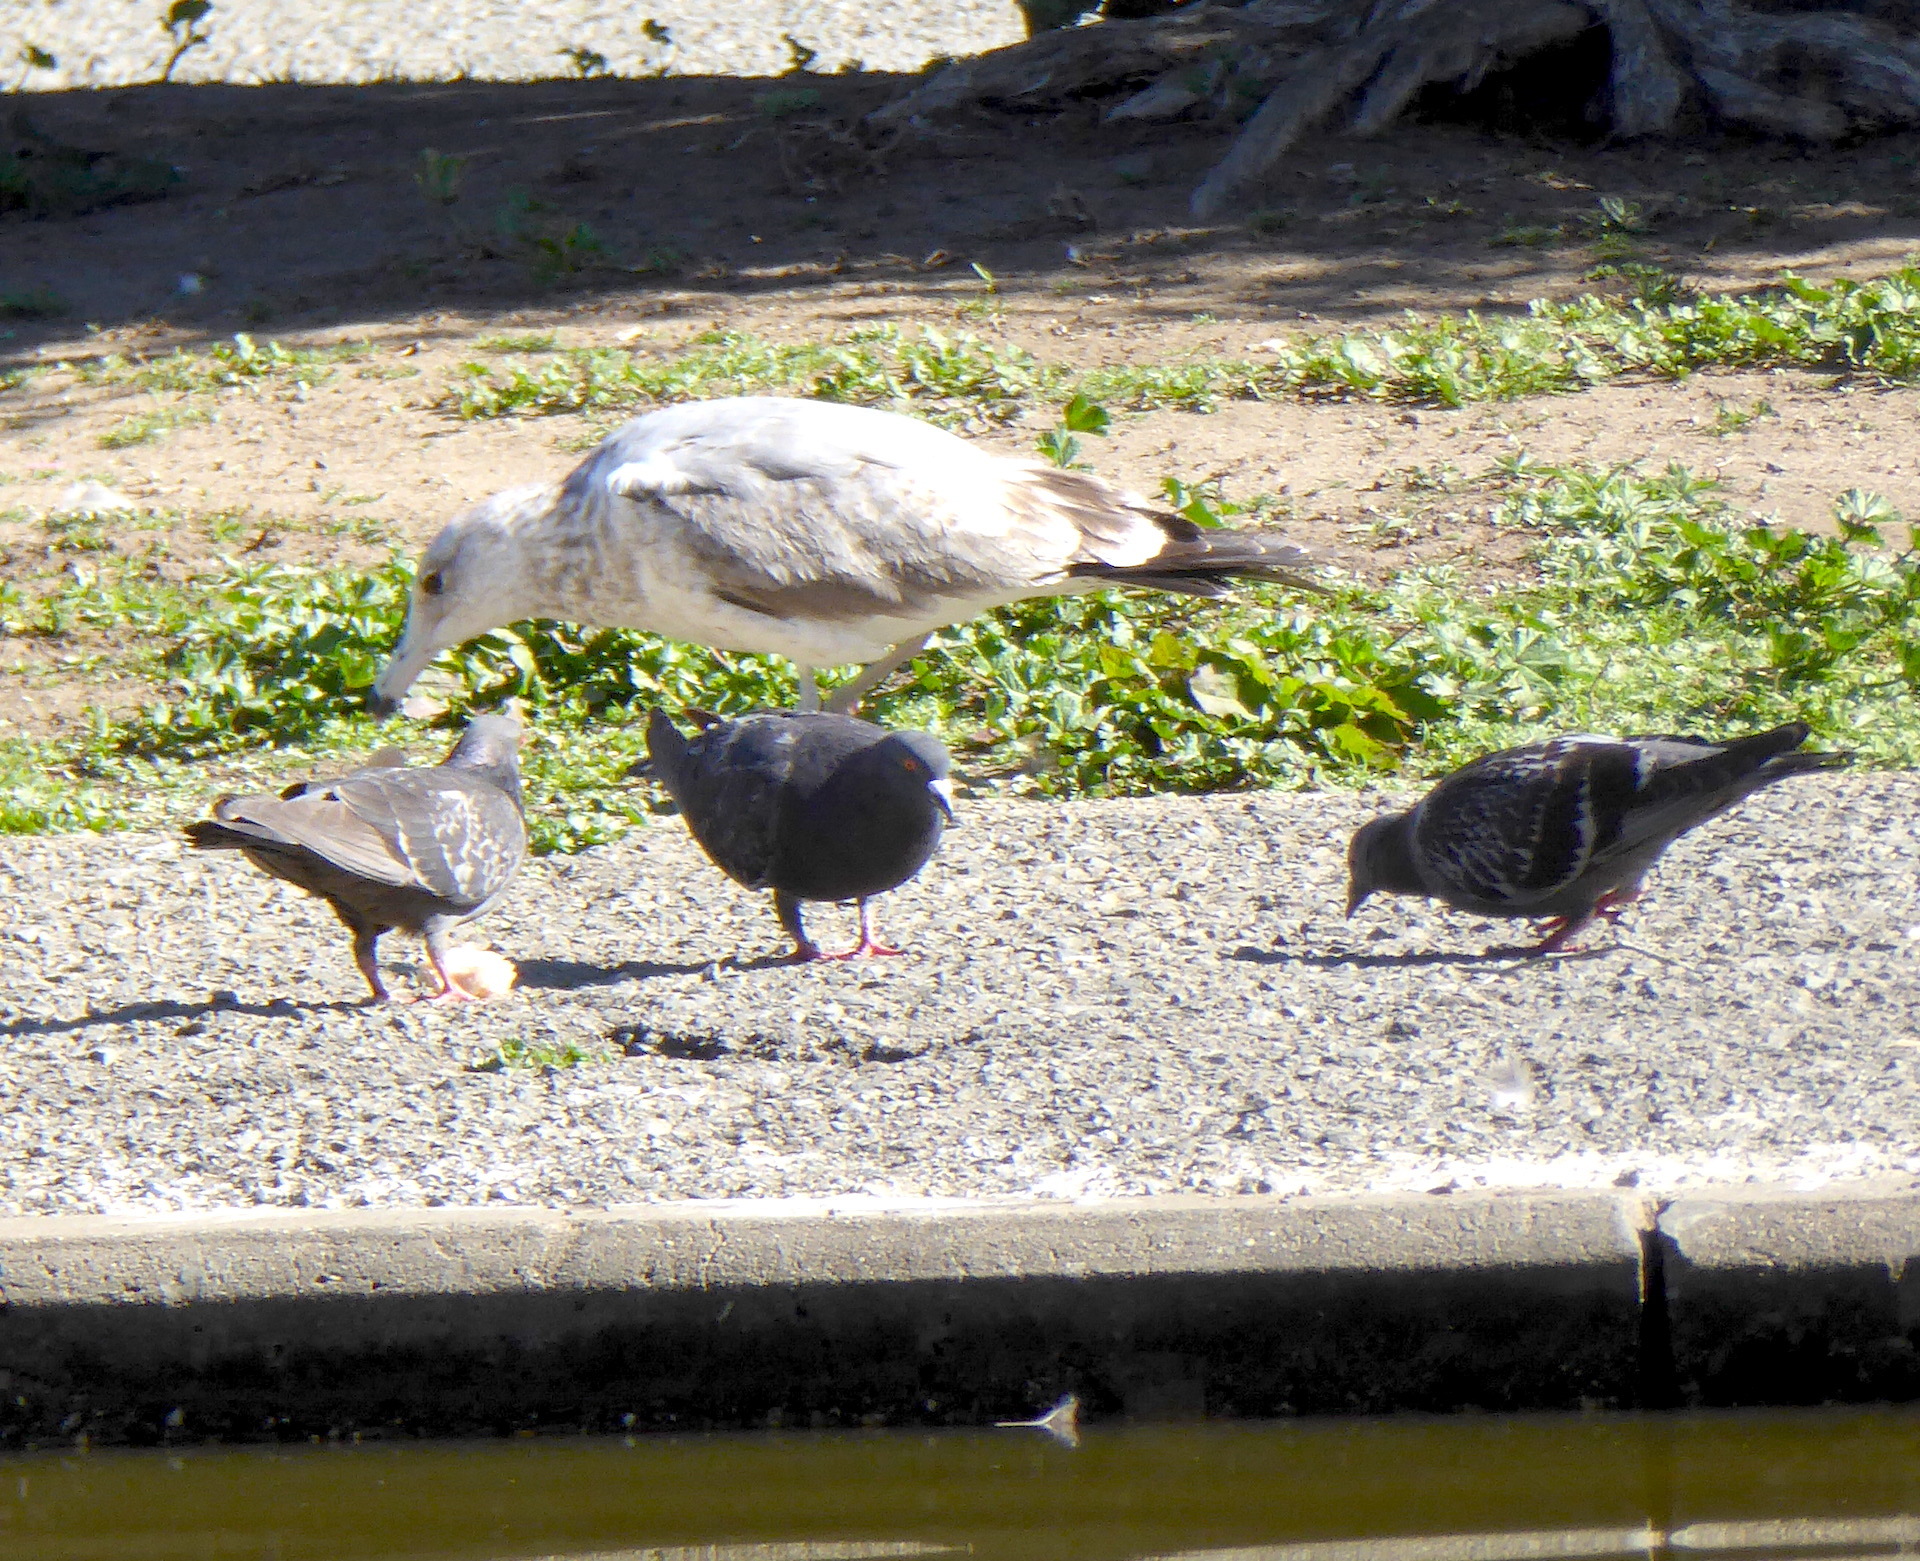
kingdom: Animalia
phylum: Chordata
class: Aves
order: Columbiformes
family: Columbidae
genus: Columba
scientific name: Columba livia
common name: Rock pigeon
